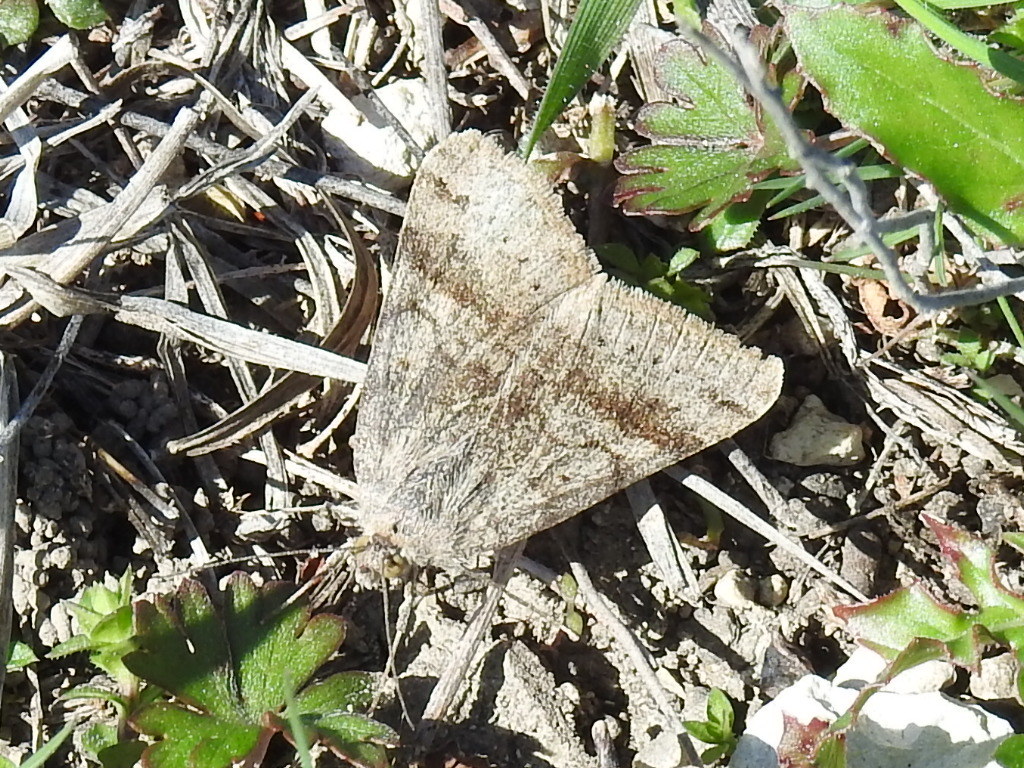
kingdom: Animalia
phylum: Arthropoda
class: Insecta
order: Lepidoptera
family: Erebidae
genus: Caenurgina
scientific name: Caenurgina erechtea
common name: Forage looper moth
